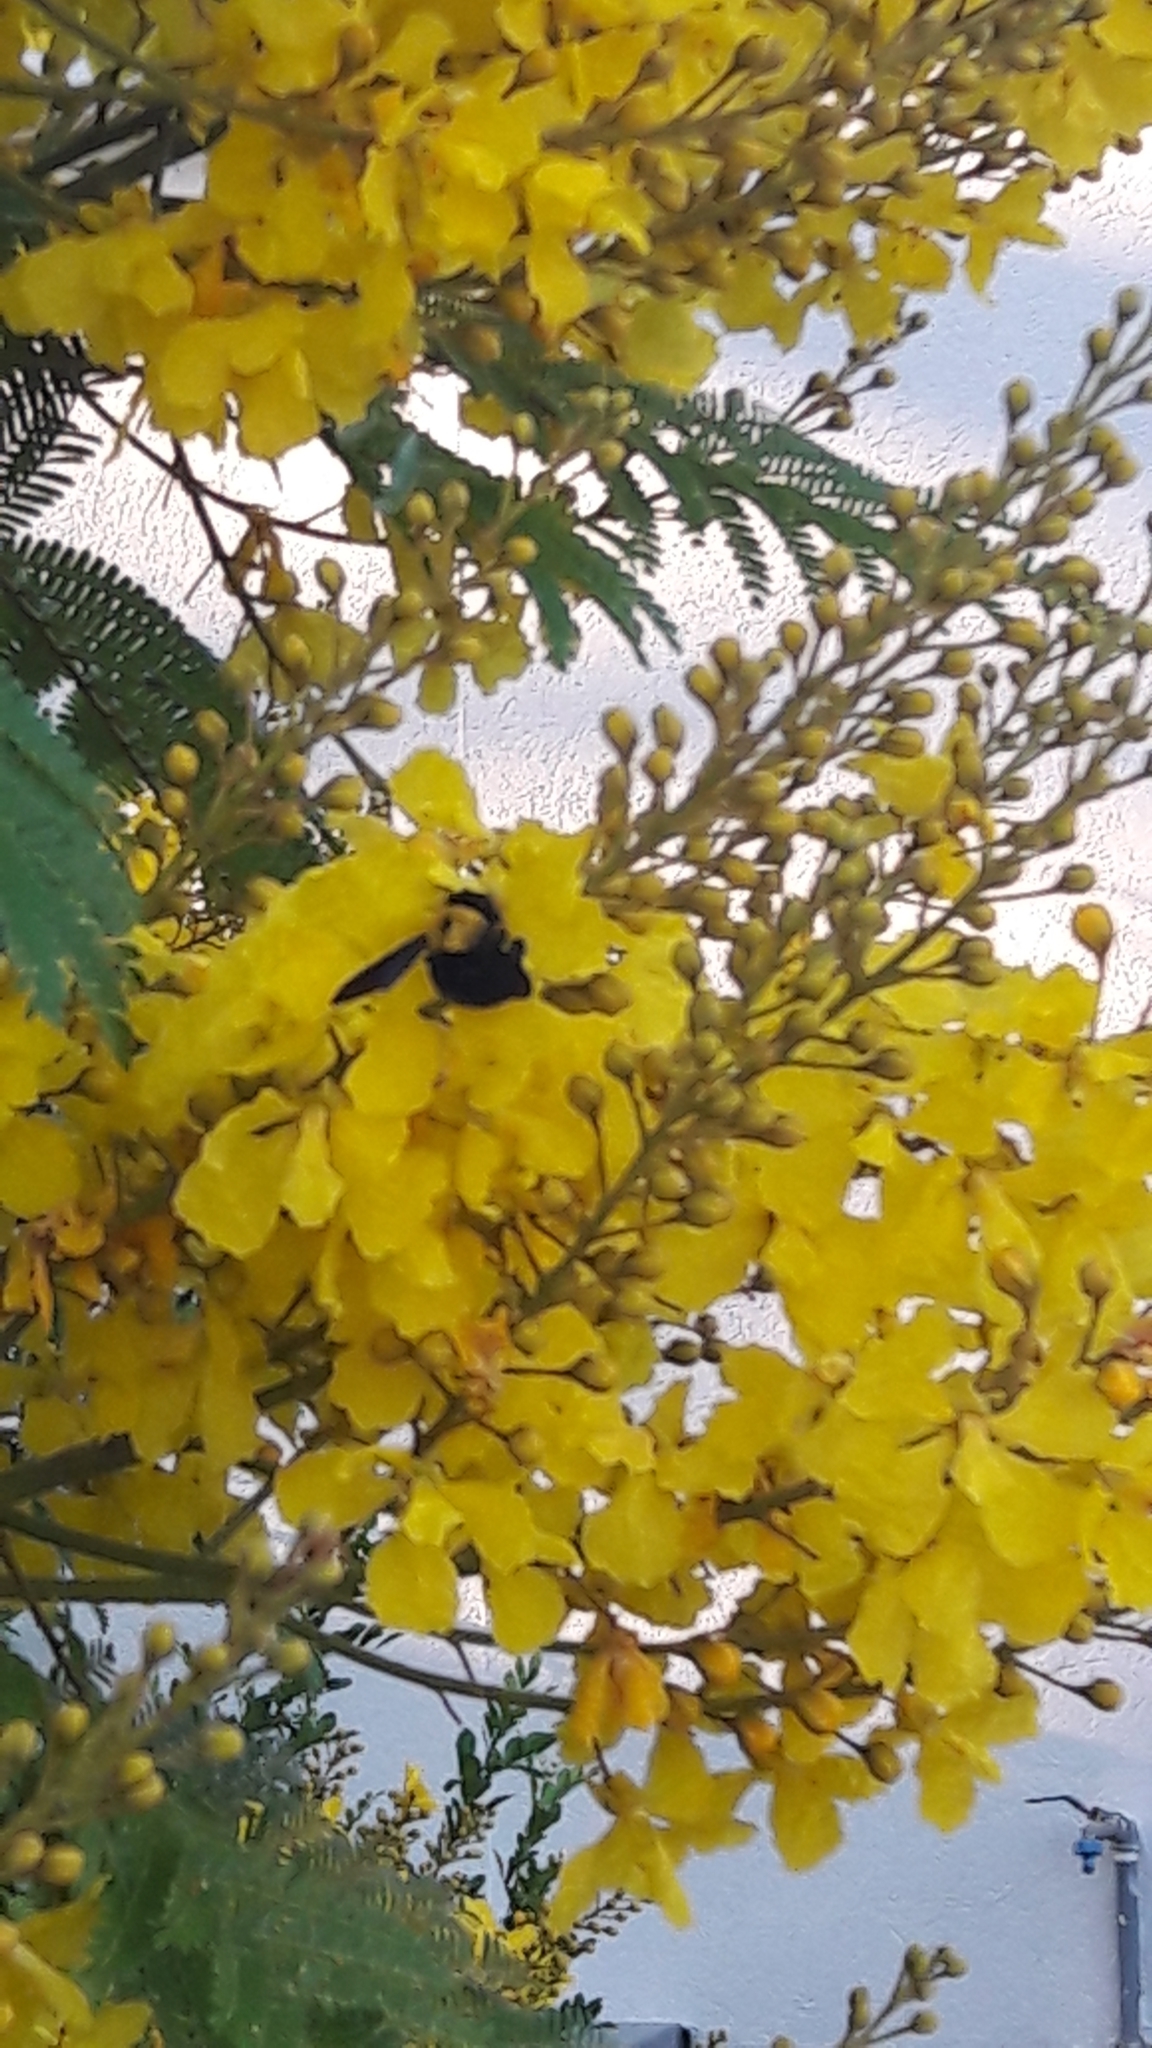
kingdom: Animalia
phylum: Arthropoda
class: Insecta
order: Hymenoptera
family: Apidae
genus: Xylocopa
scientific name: Xylocopa pubescens
